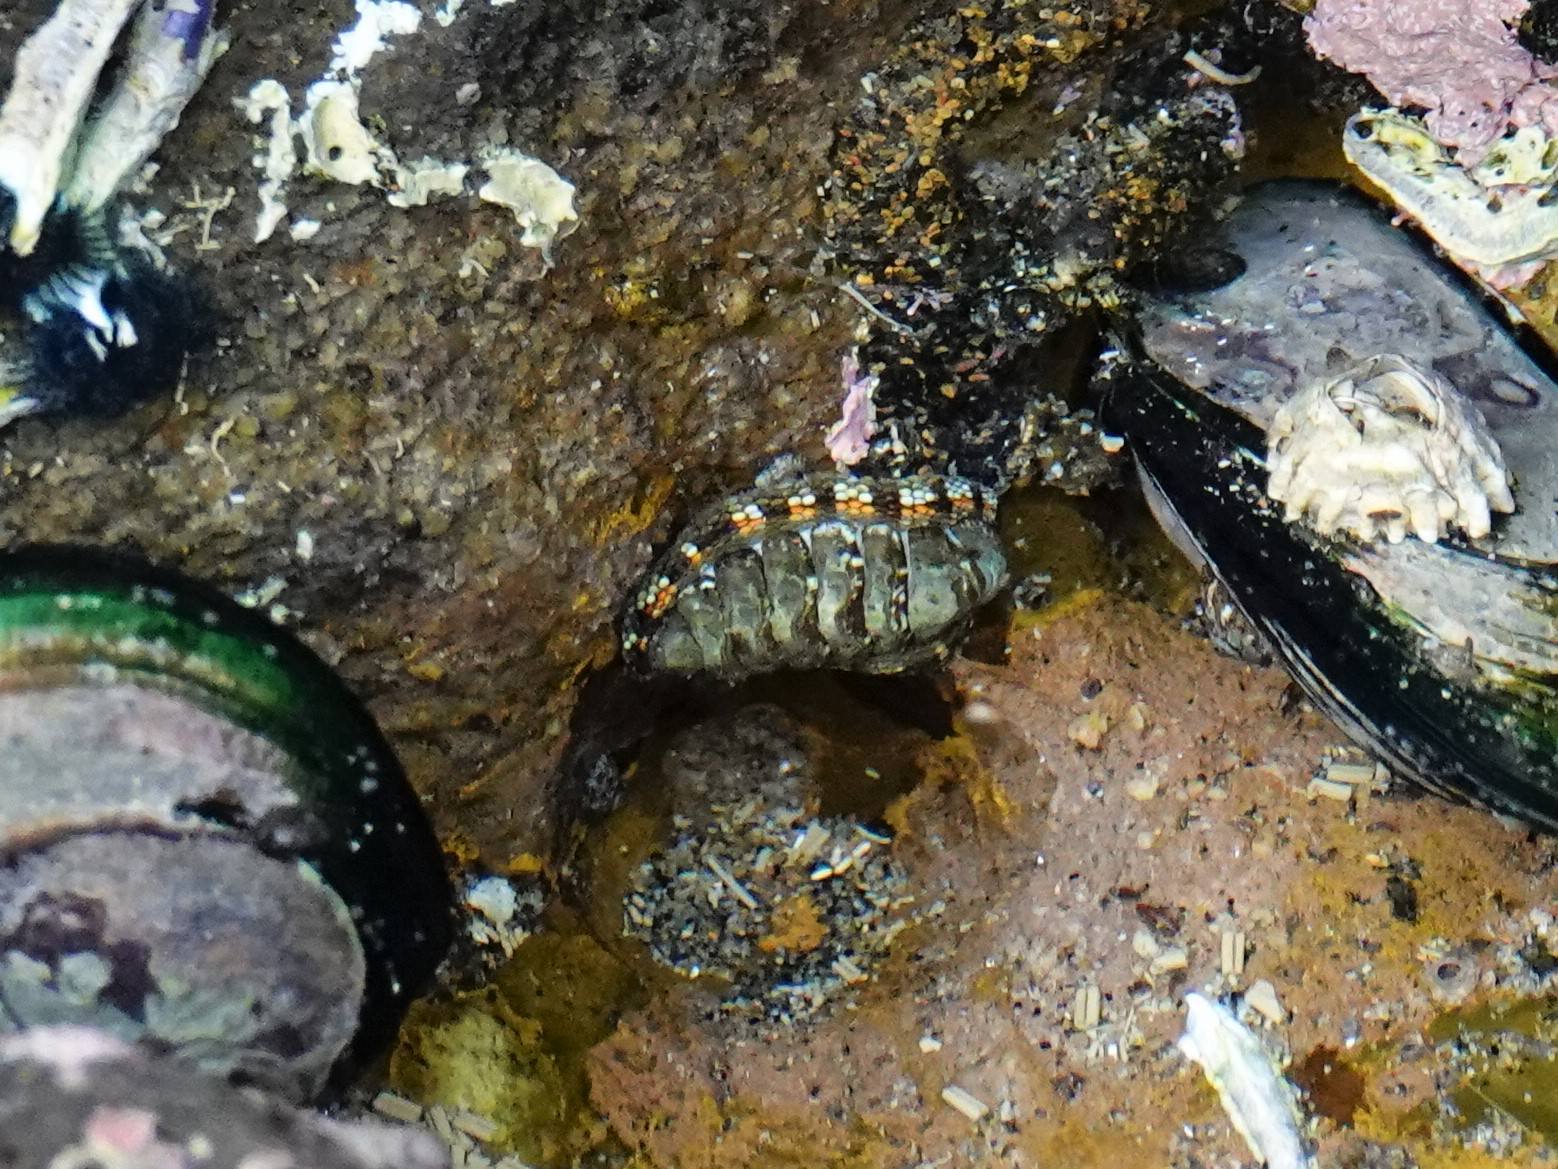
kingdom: Animalia
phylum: Mollusca
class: Polyplacophora
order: Chitonida
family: Chitonidae
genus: Sypharochiton
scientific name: Sypharochiton sinclairi
